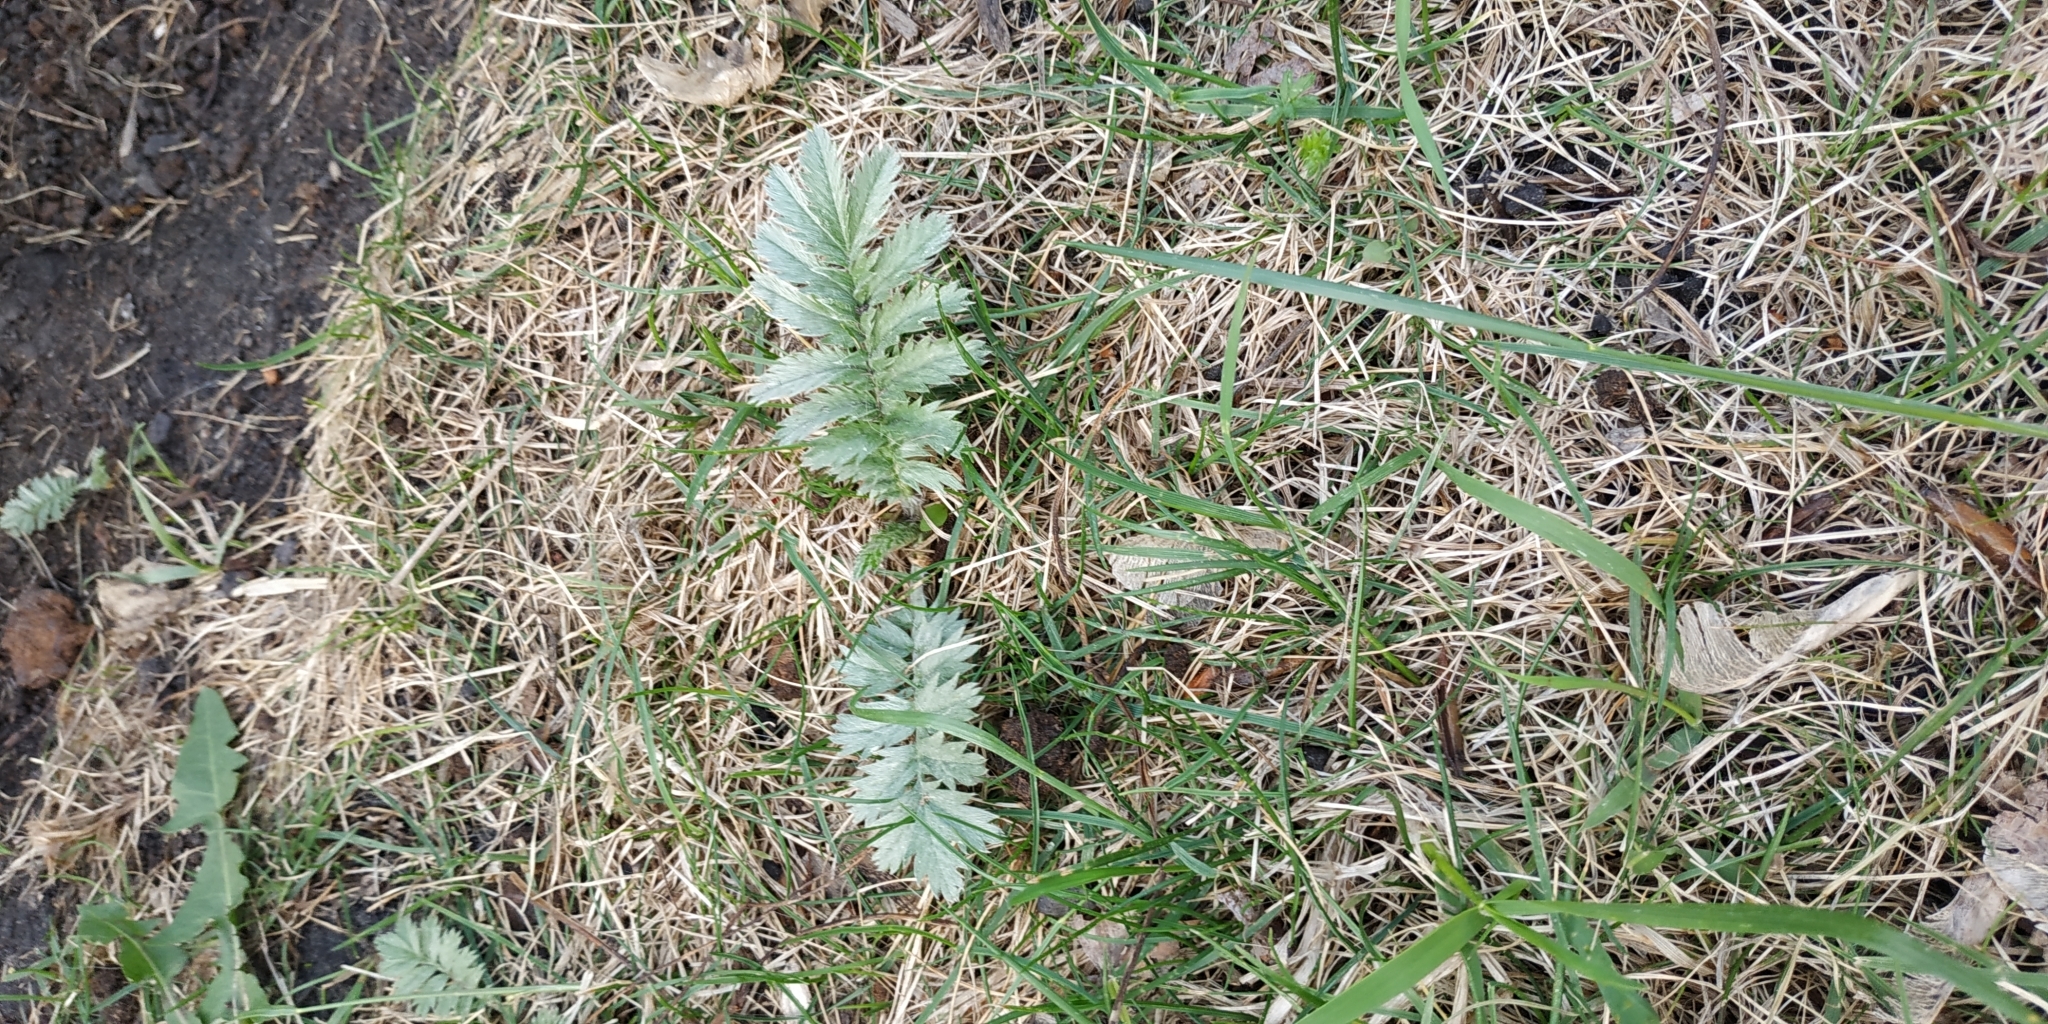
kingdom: Plantae
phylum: Tracheophyta
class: Magnoliopsida
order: Rosales
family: Rosaceae
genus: Argentina
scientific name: Argentina anserina
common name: Common silverweed
